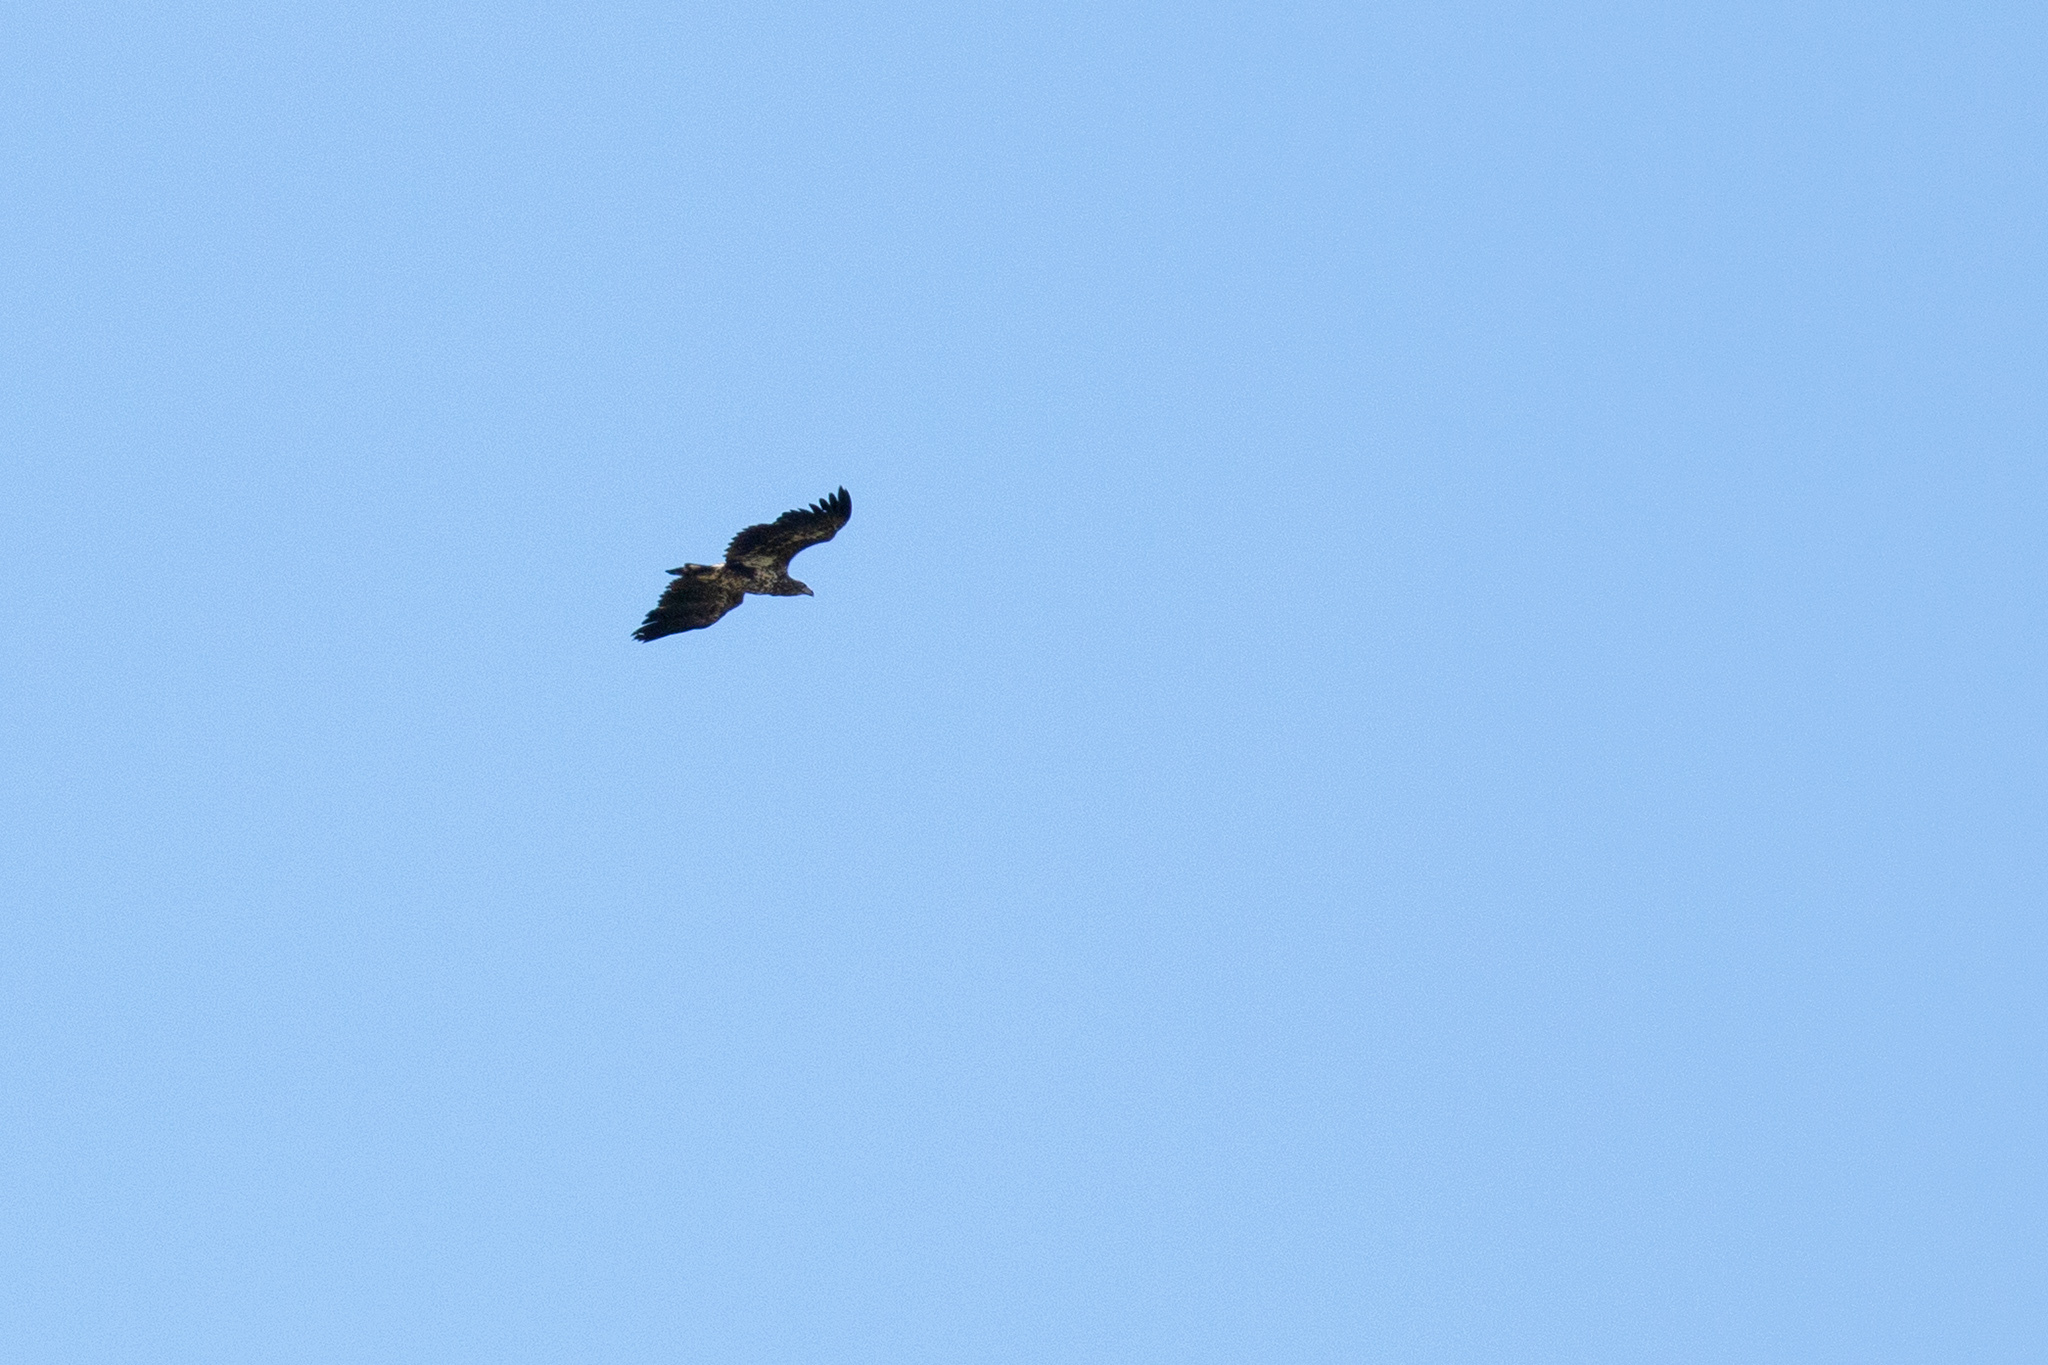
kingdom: Animalia
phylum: Chordata
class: Aves
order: Accipitriformes
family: Accipitridae
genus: Haliaeetus
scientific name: Haliaeetus albicilla
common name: White-tailed eagle
